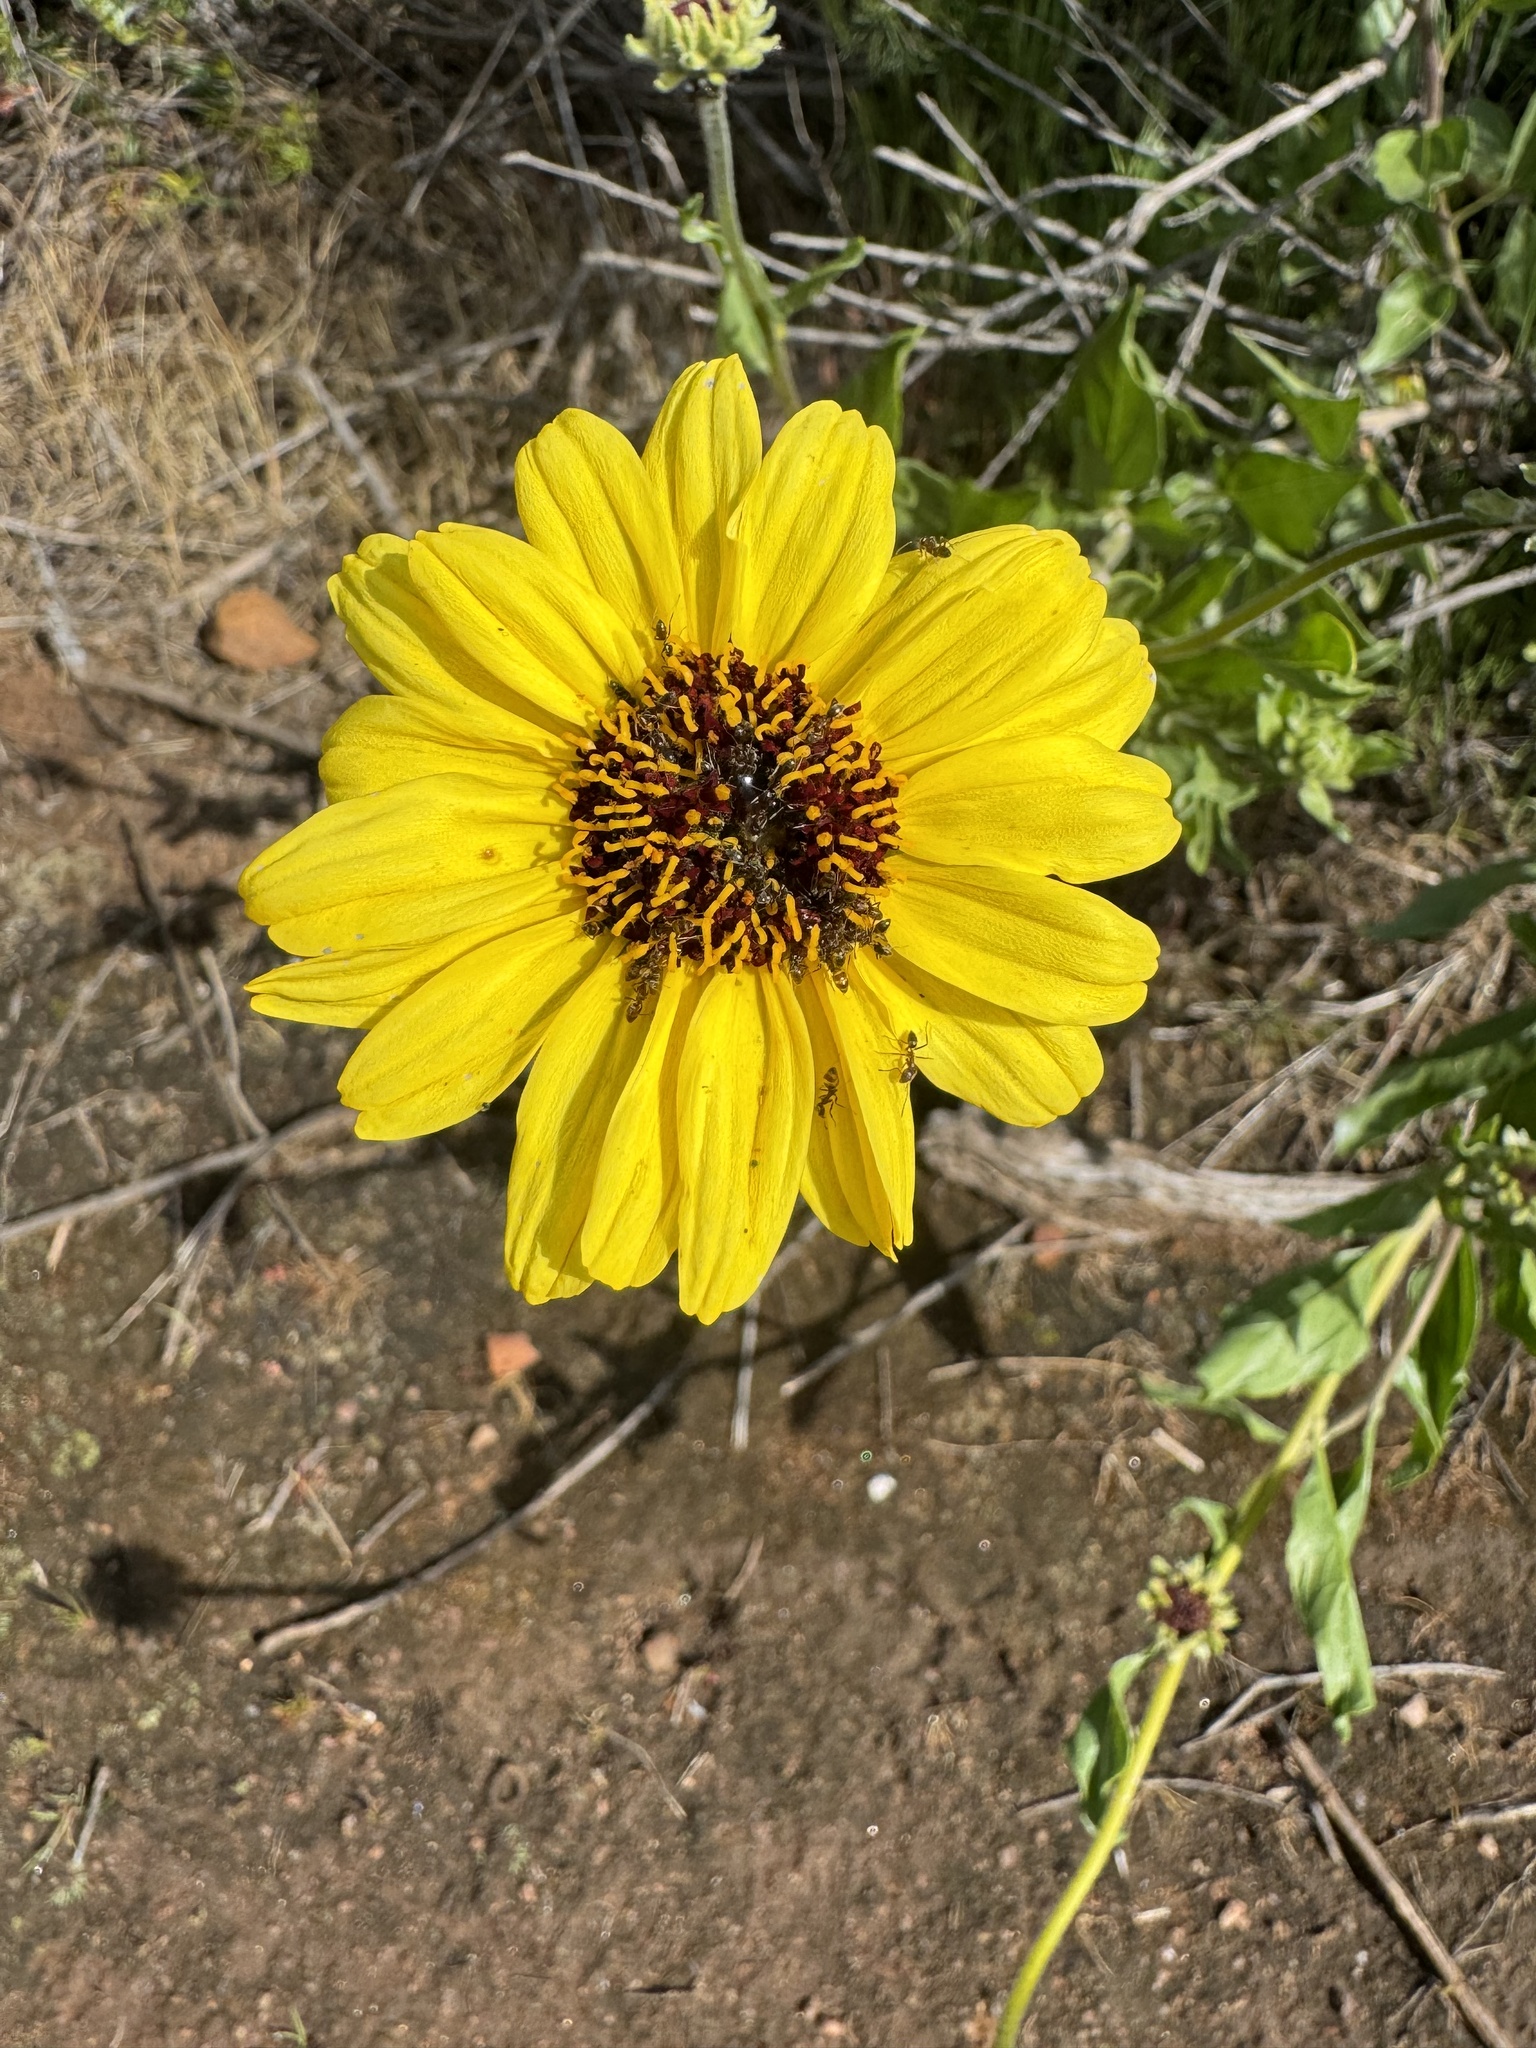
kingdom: Plantae
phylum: Tracheophyta
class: Magnoliopsida
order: Asterales
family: Asteraceae
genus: Encelia
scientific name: Encelia californica
